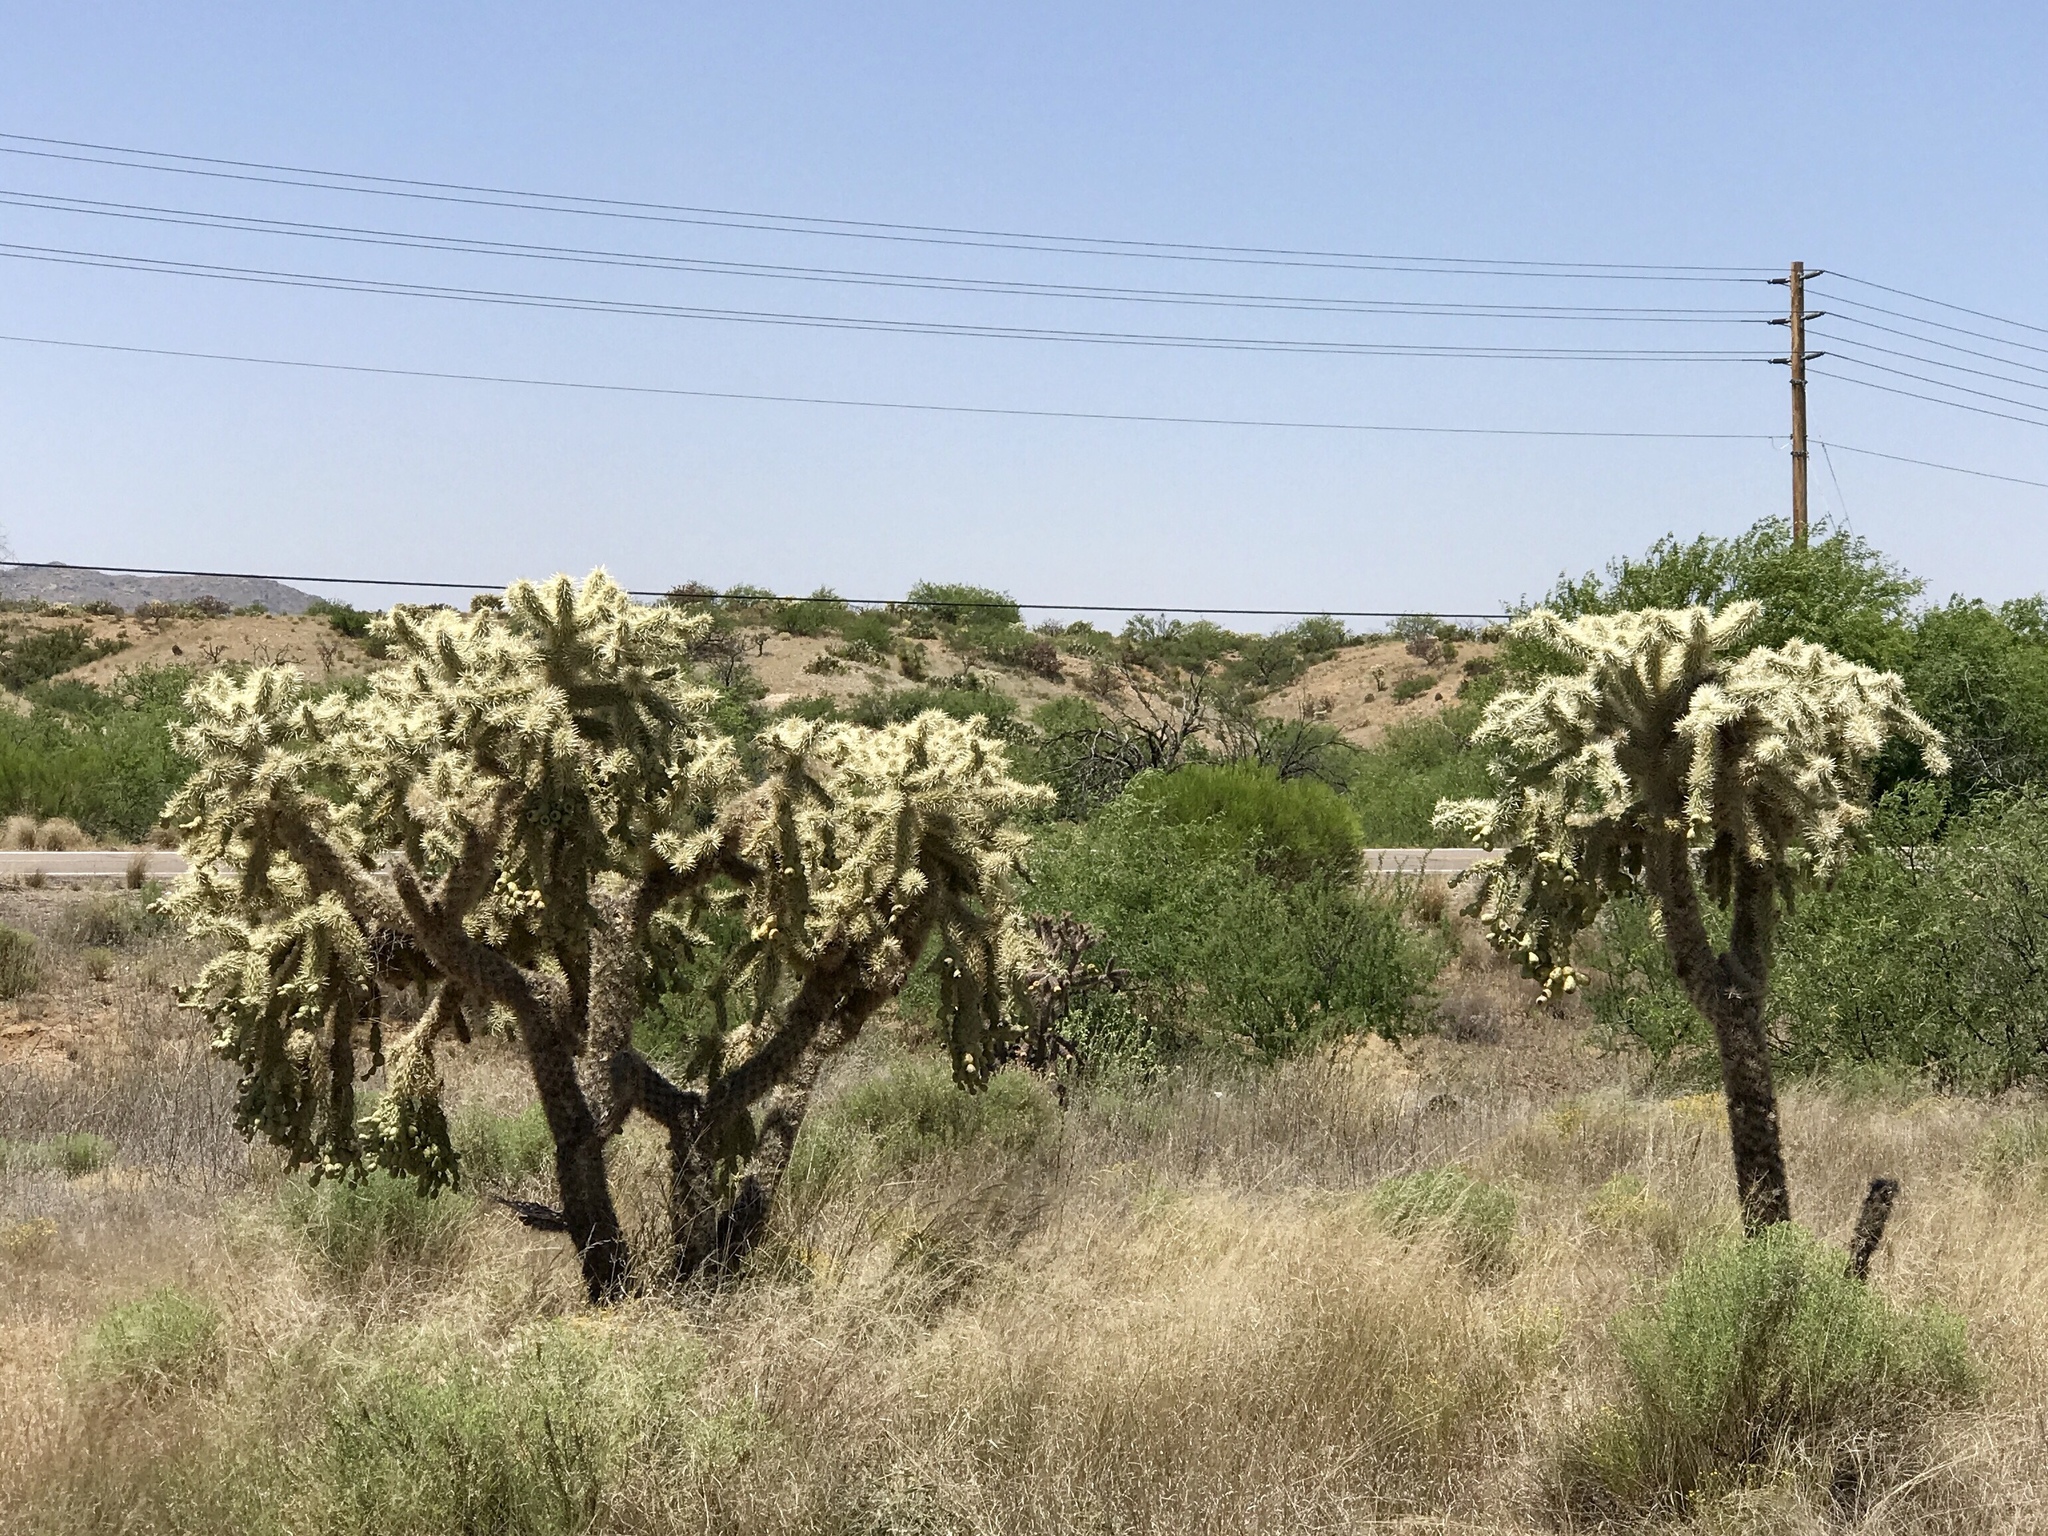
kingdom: Plantae
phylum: Tracheophyta
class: Magnoliopsida
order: Caryophyllales
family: Cactaceae
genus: Cylindropuntia
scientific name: Cylindropuntia fulgida
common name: Jumping cholla
